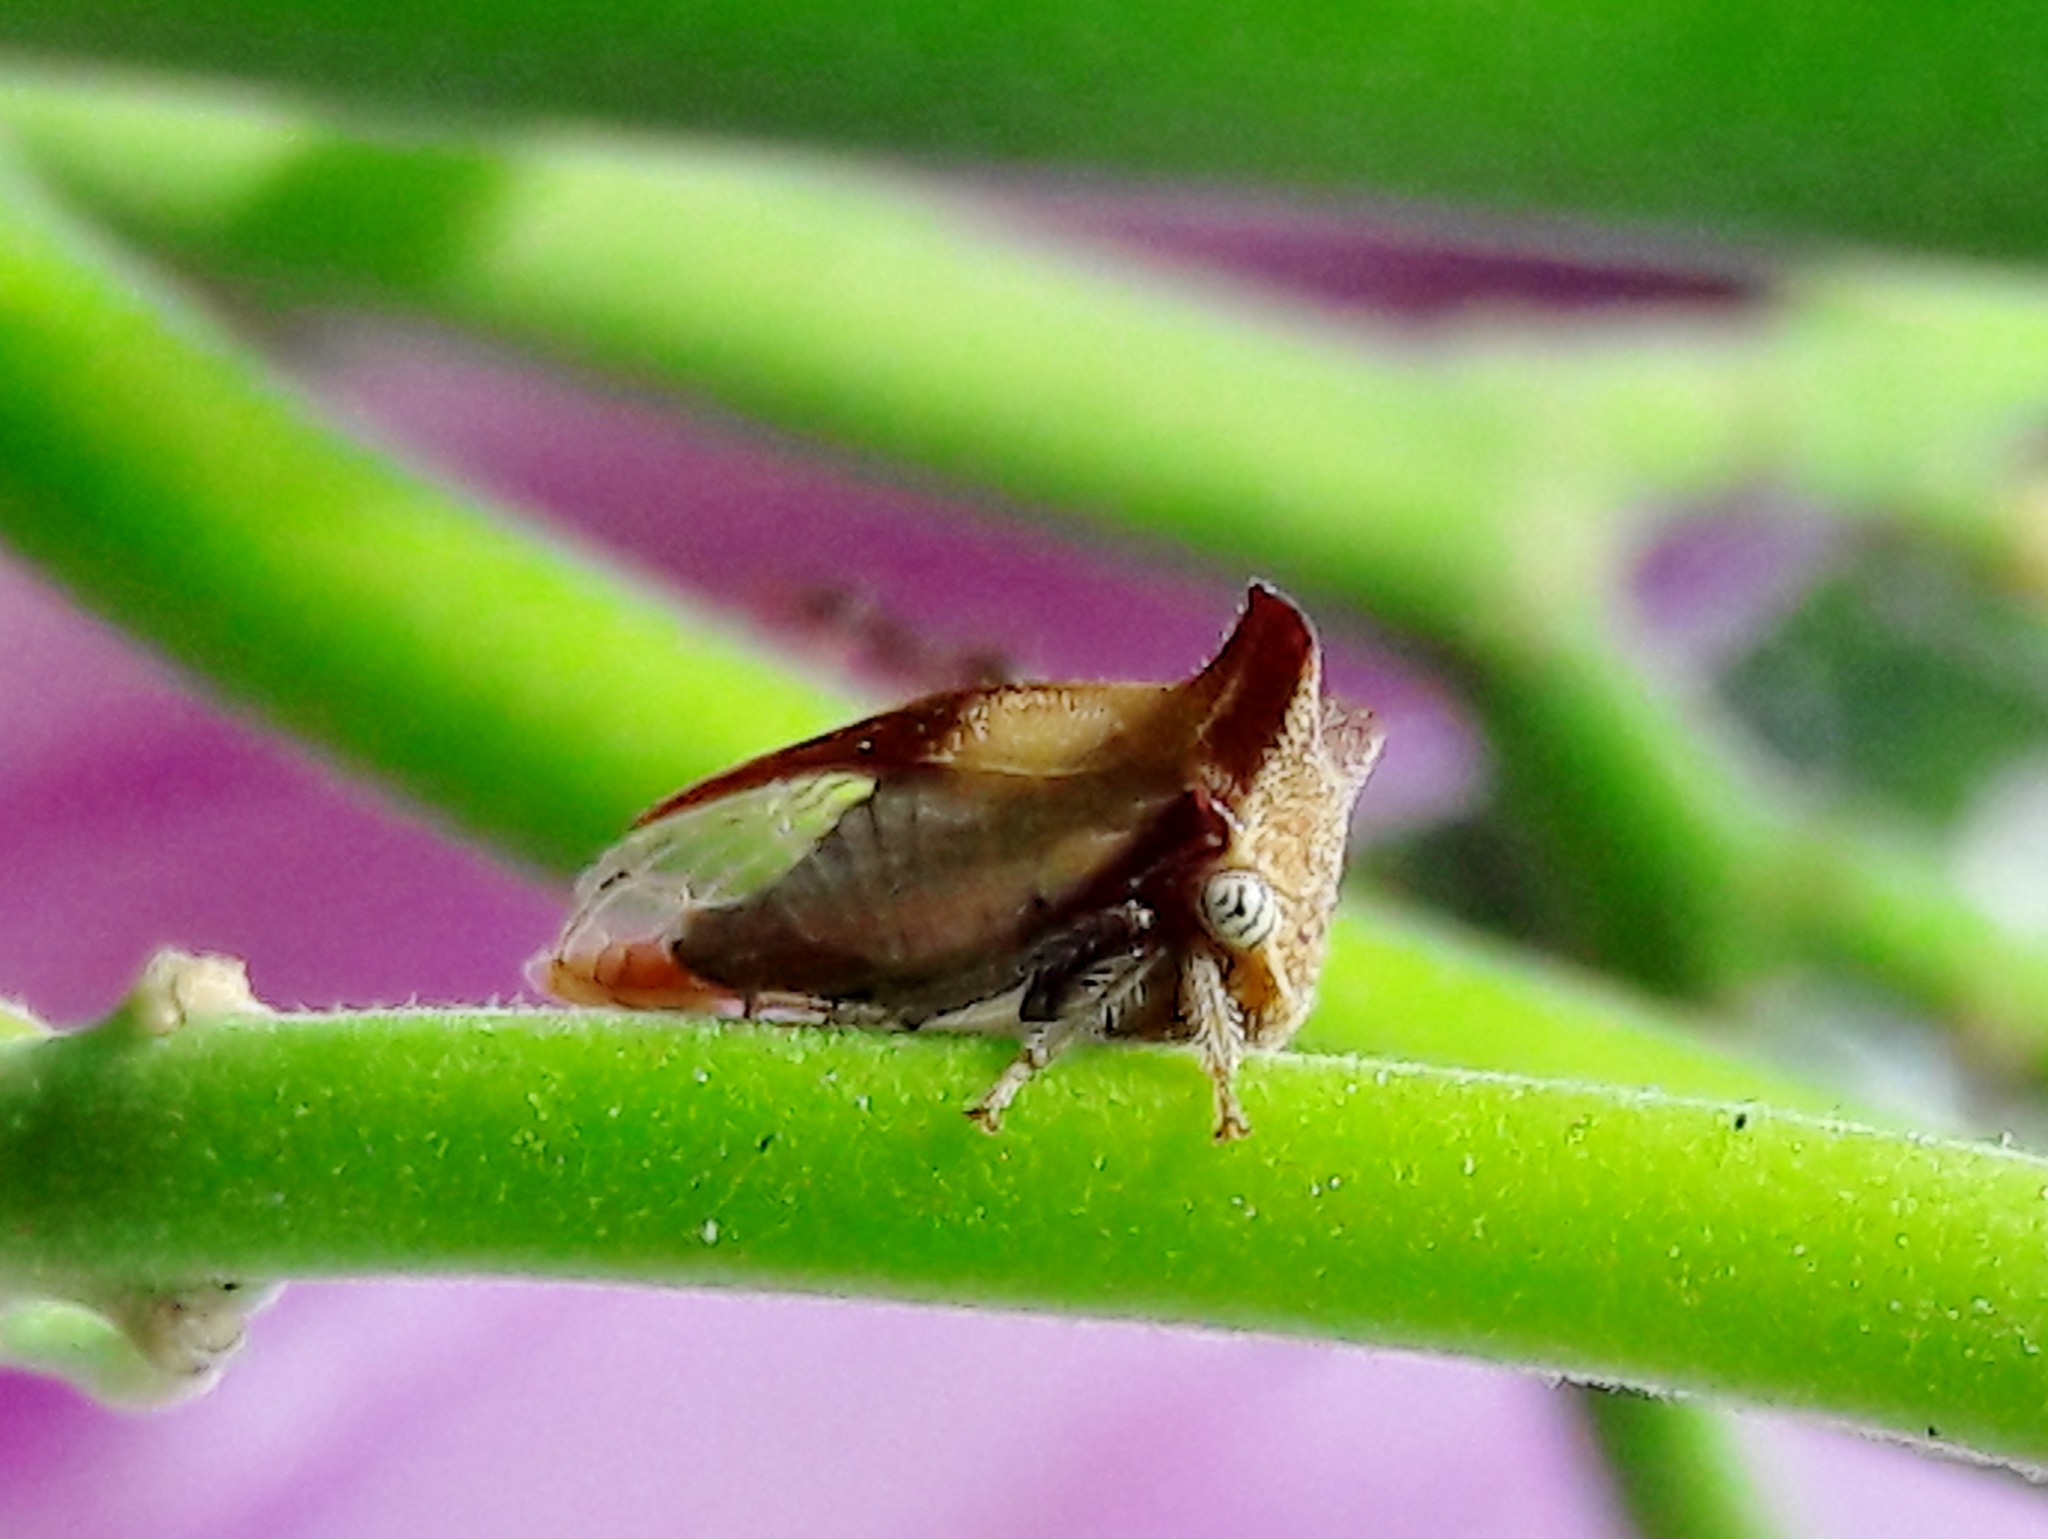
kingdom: Animalia
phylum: Arthropoda
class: Insecta
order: Hemiptera
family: Membracidae
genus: Ceresa
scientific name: Ceresa ustulata
